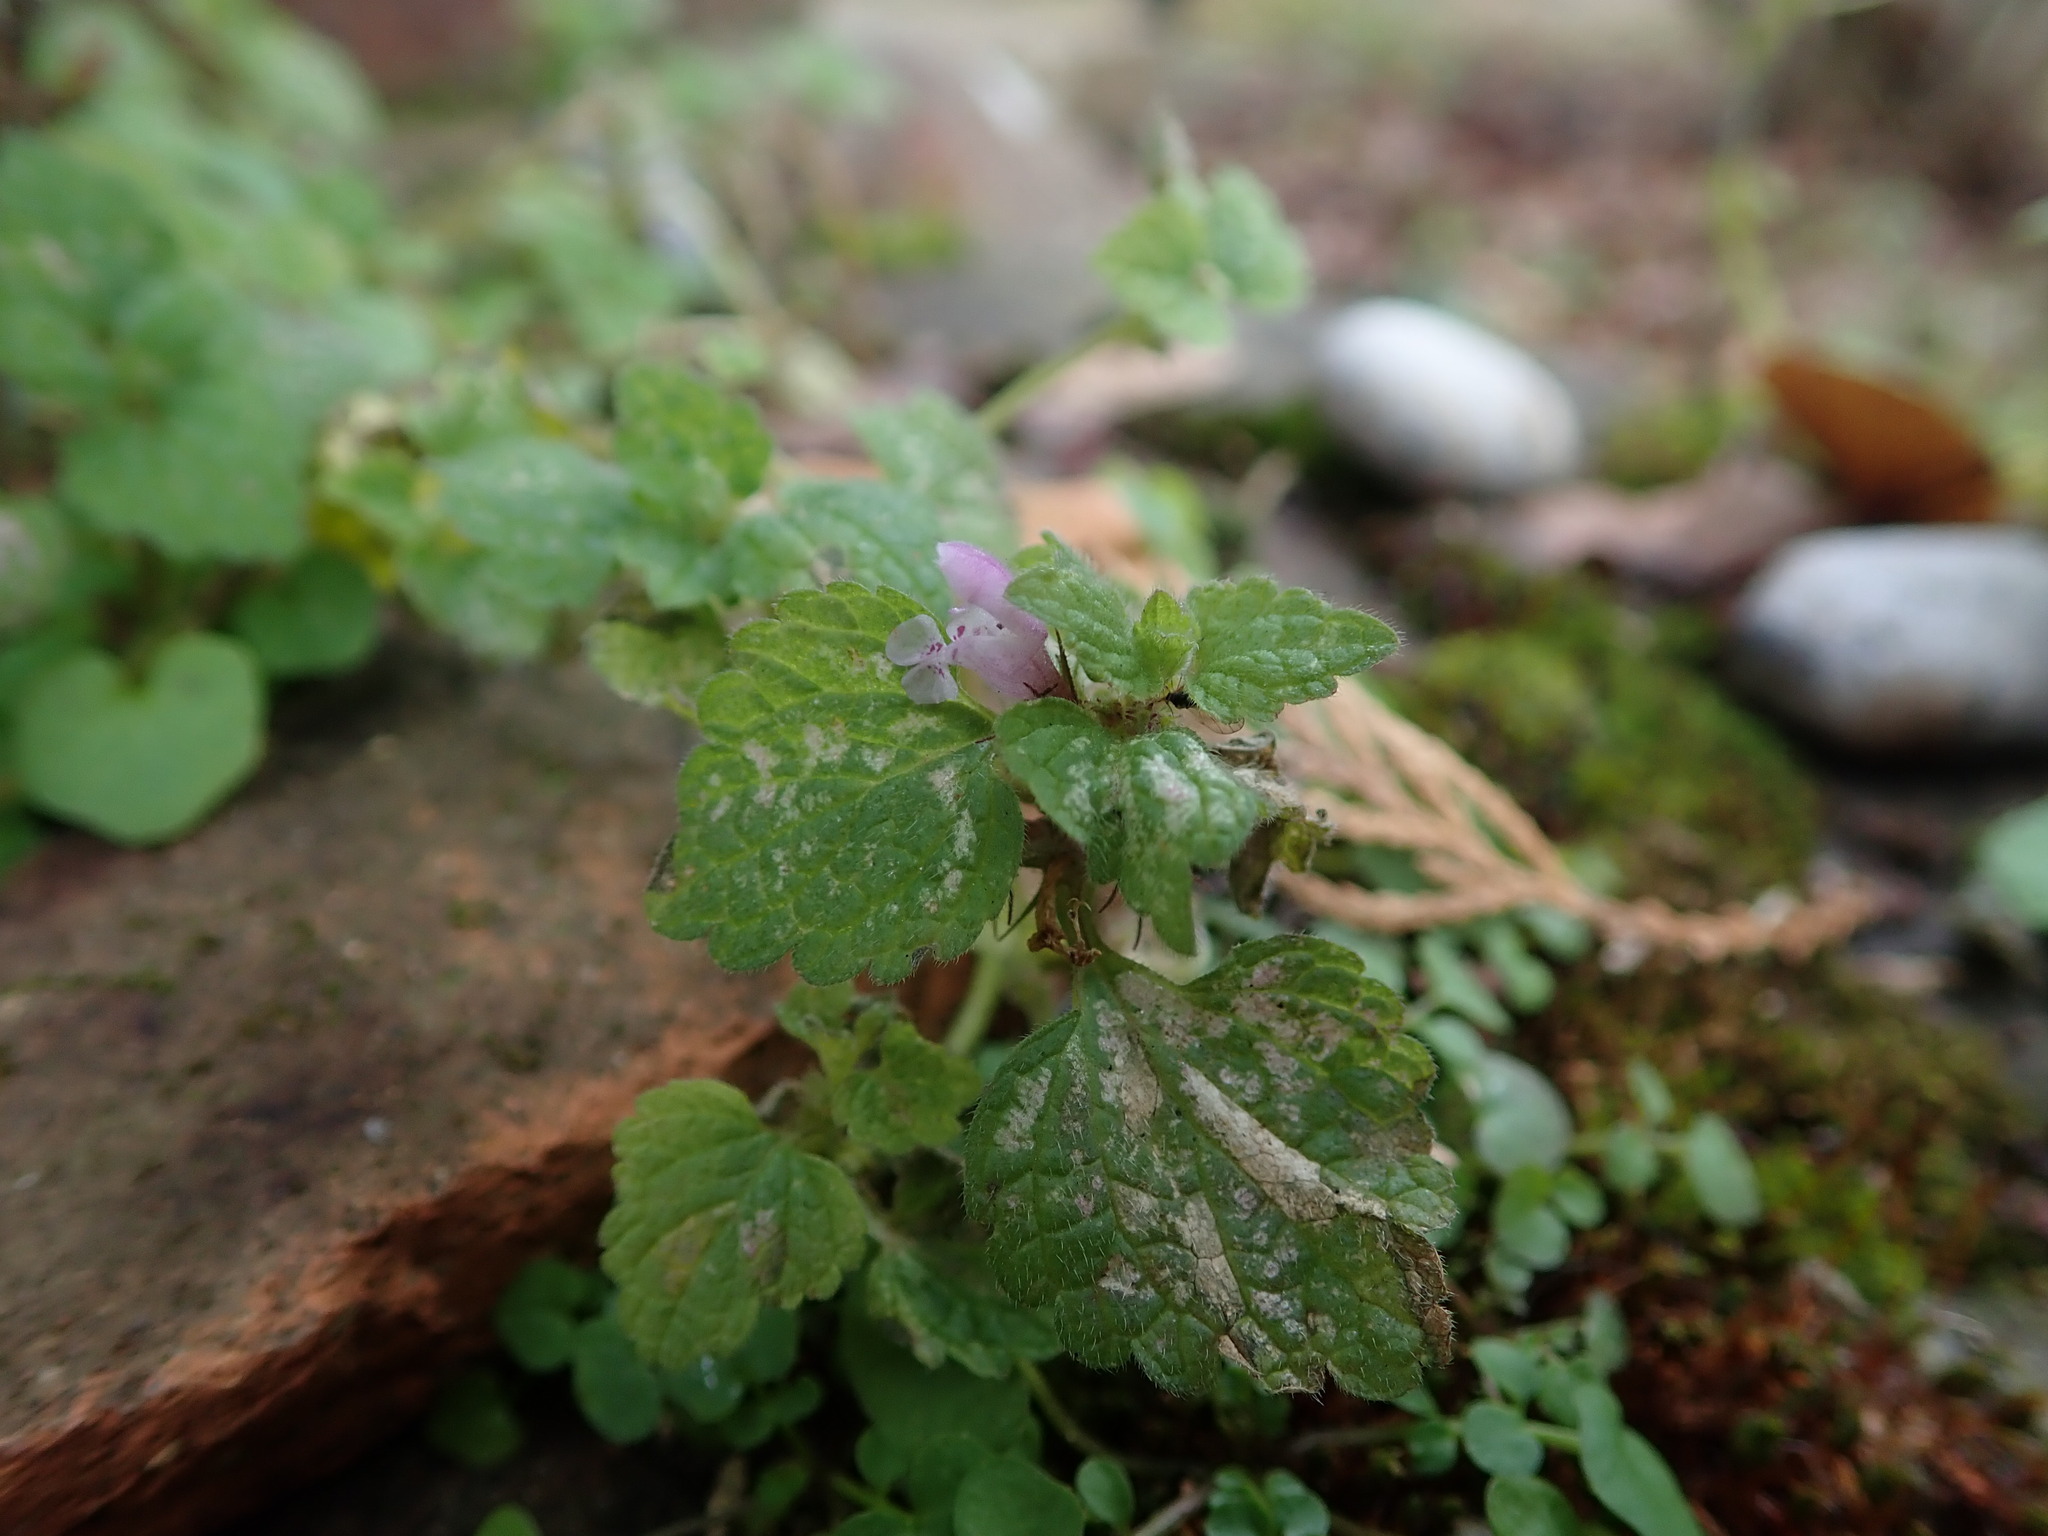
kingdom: Plantae
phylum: Tracheophyta
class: Magnoliopsida
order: Lamiales
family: Lamiaceae
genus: Lamium
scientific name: Lamium purpureum
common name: Red dead-nettle
